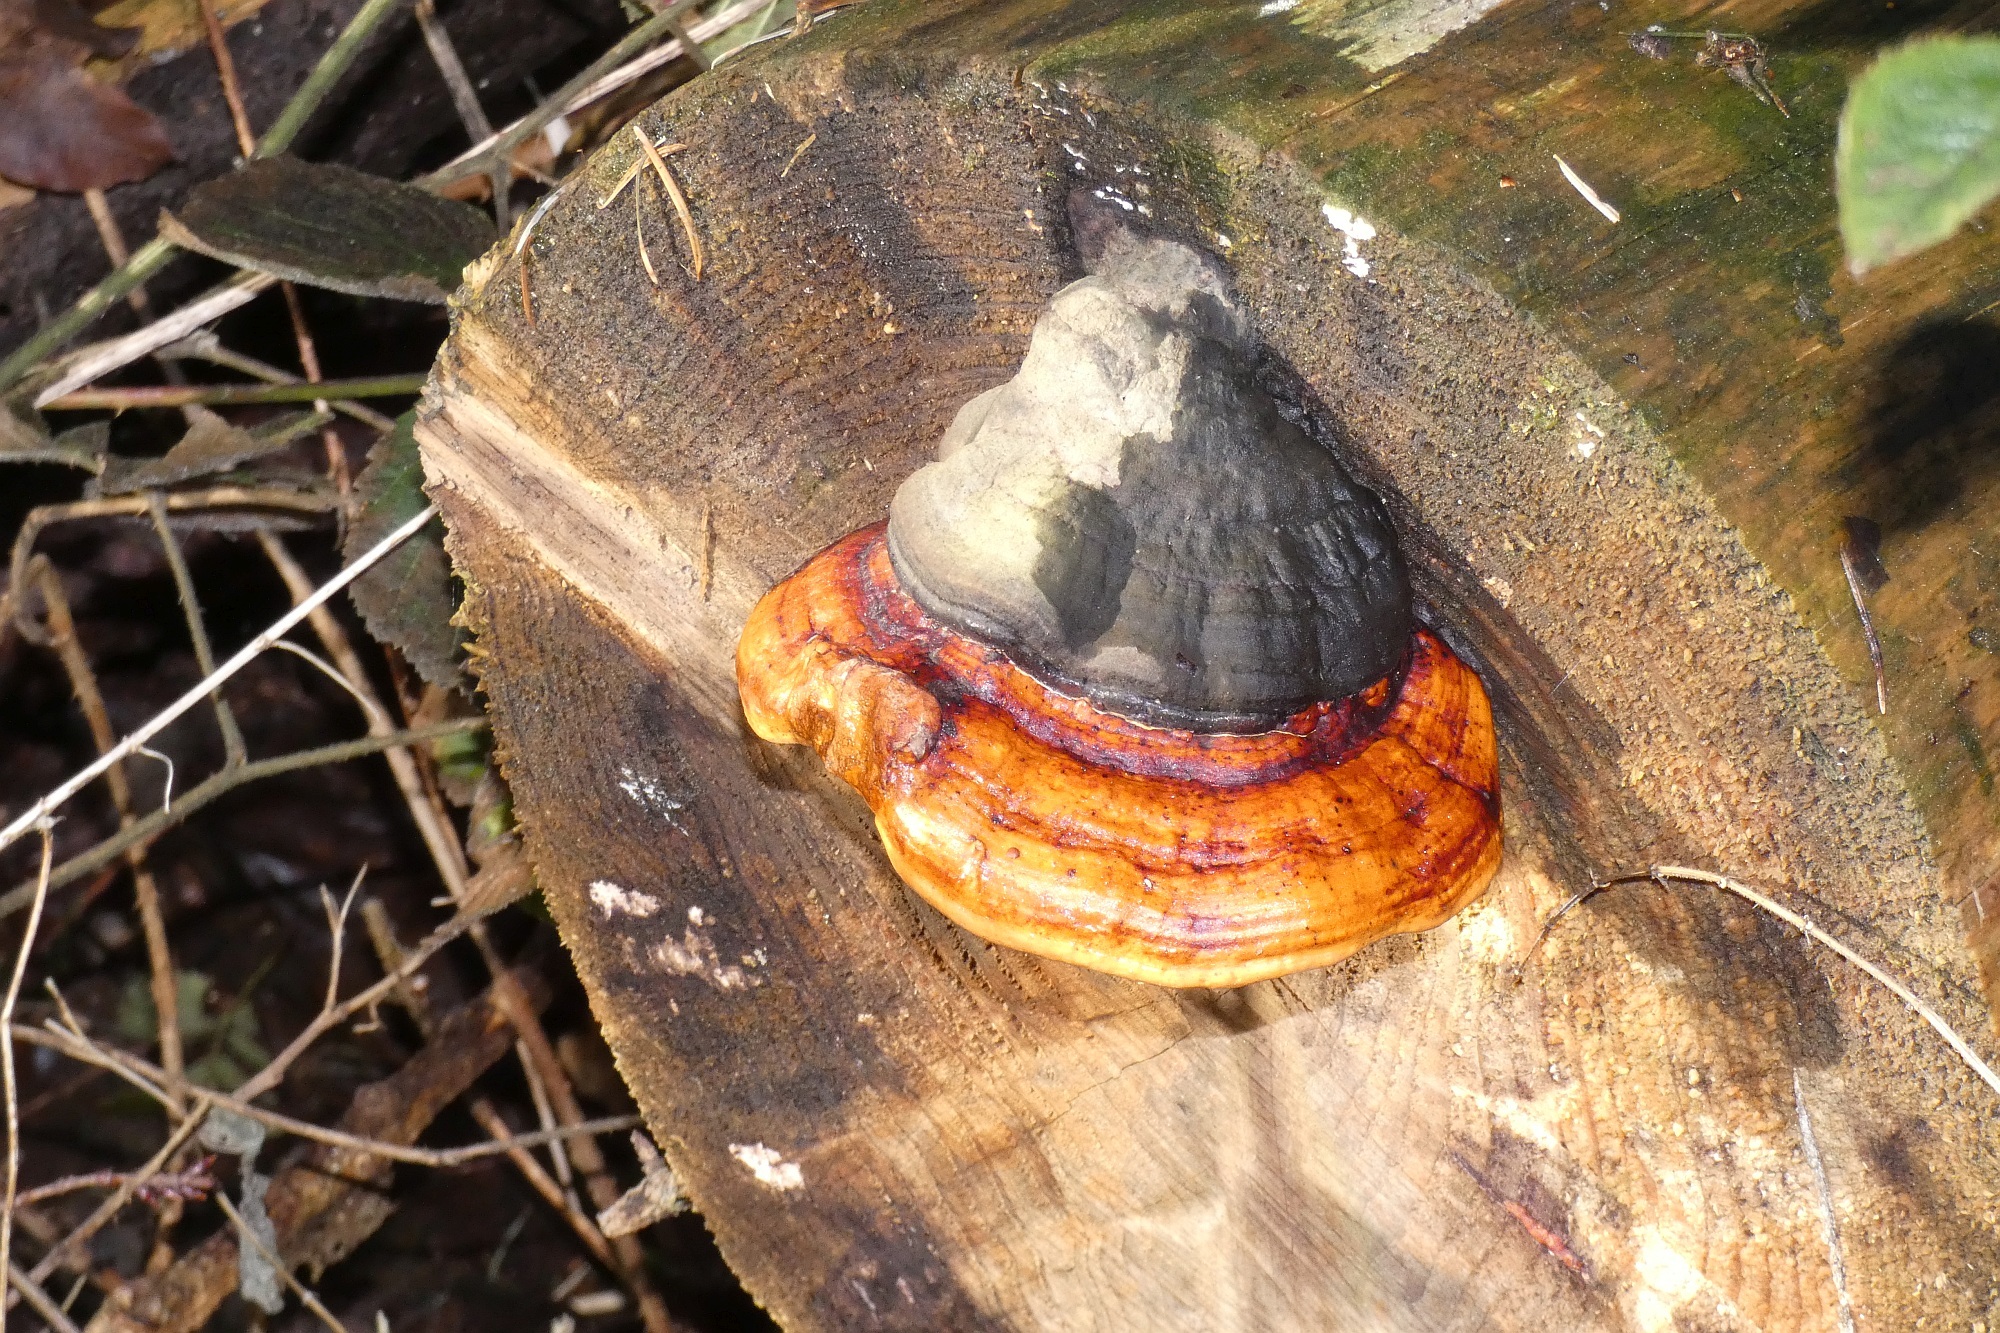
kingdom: Fungi
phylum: Basidiomycota
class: Agaricomycetes
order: Polyporales
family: Fomitopsidaceae
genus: Fomitopsis
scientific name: Fomitopsis pinicola
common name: Red-belted bracket
